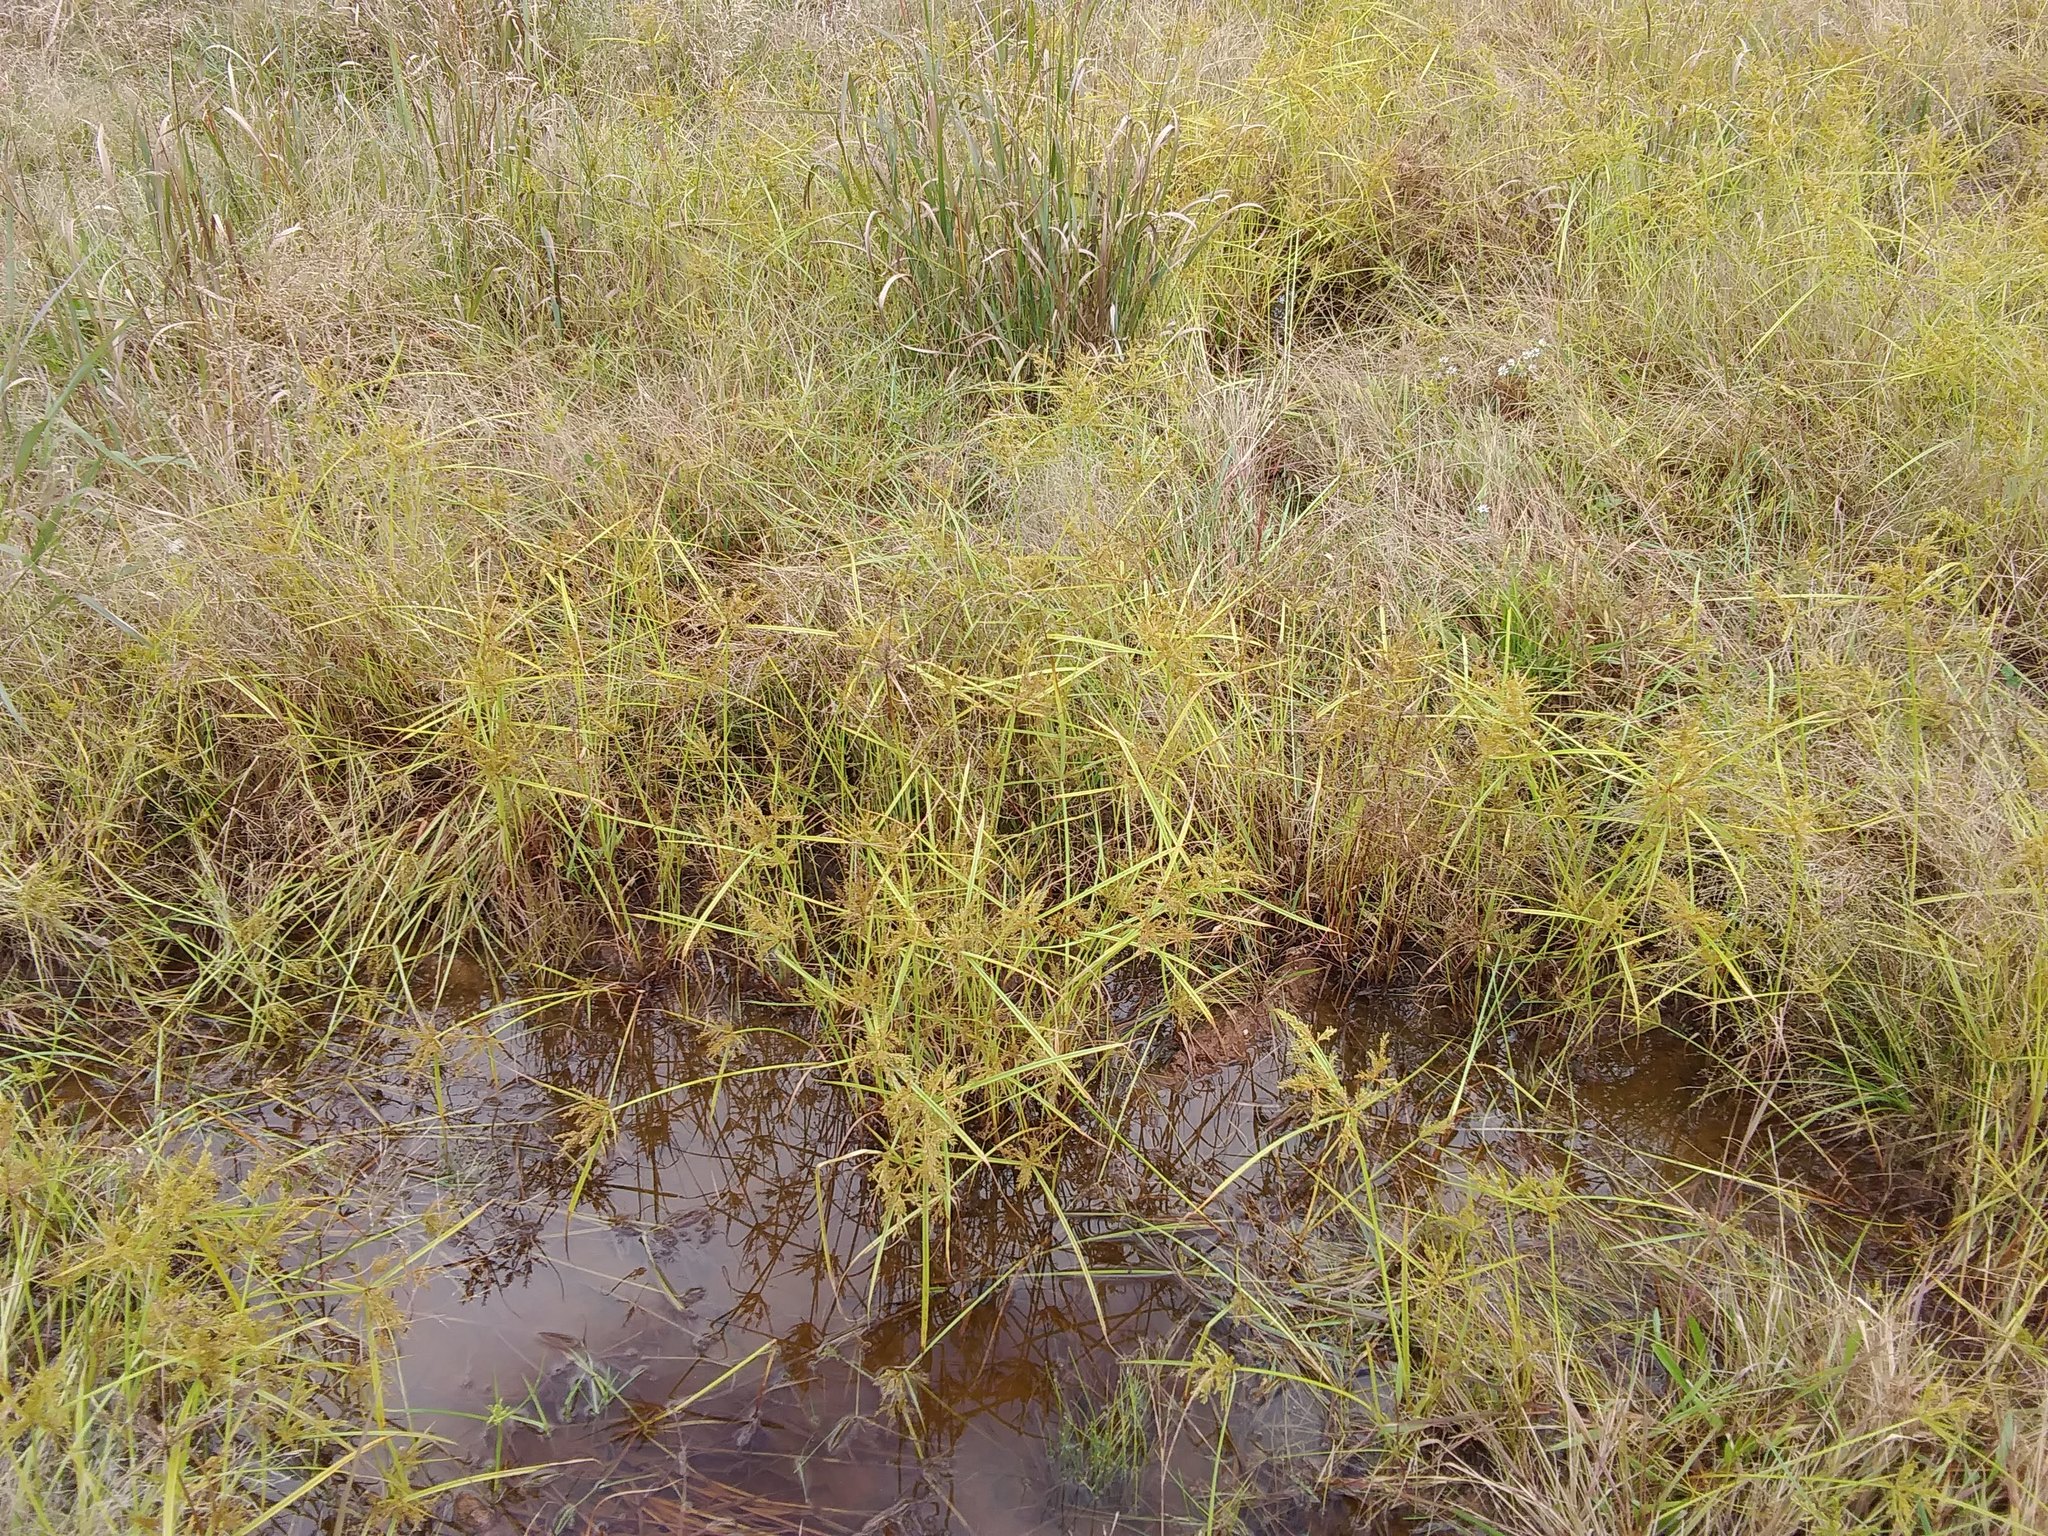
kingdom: Plantae
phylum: Tracheophyta
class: Liliopsida
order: Poales
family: Cyperaceae
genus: Cyperus
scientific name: Cyperus iria
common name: Ricefield flatsedge
